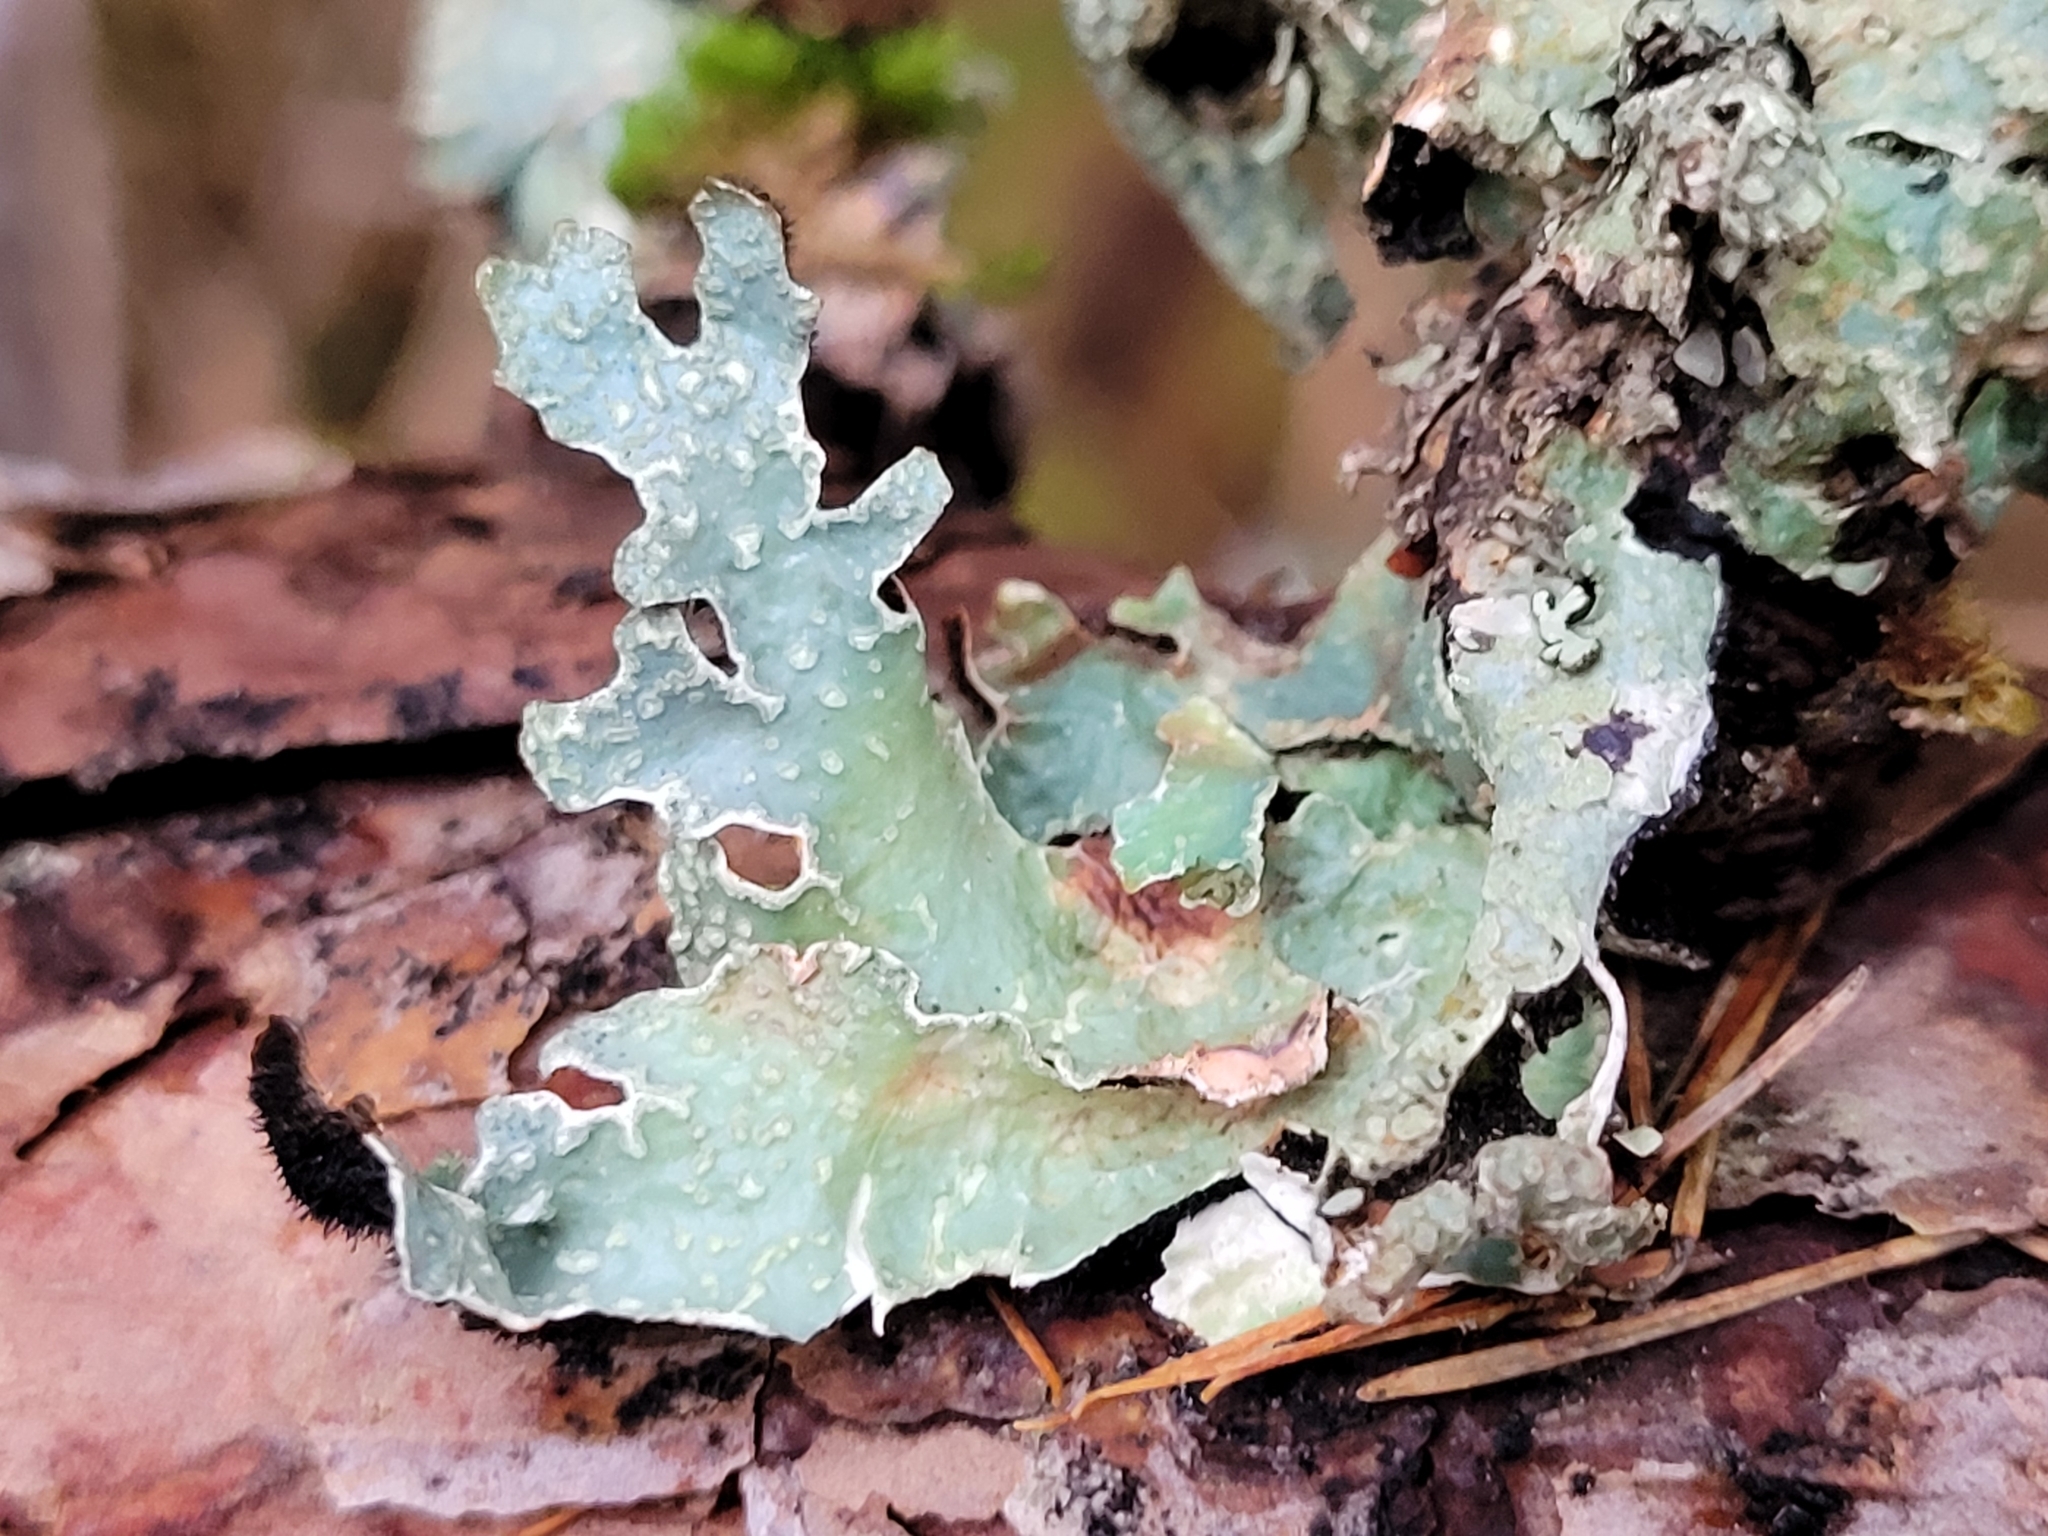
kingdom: Fungi
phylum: Ascomycota
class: Lecanoromycetes
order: Lecanorales
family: Parmeliaceae
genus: Parmelia
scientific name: Parmelia sulcata
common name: Netted shield lichen
